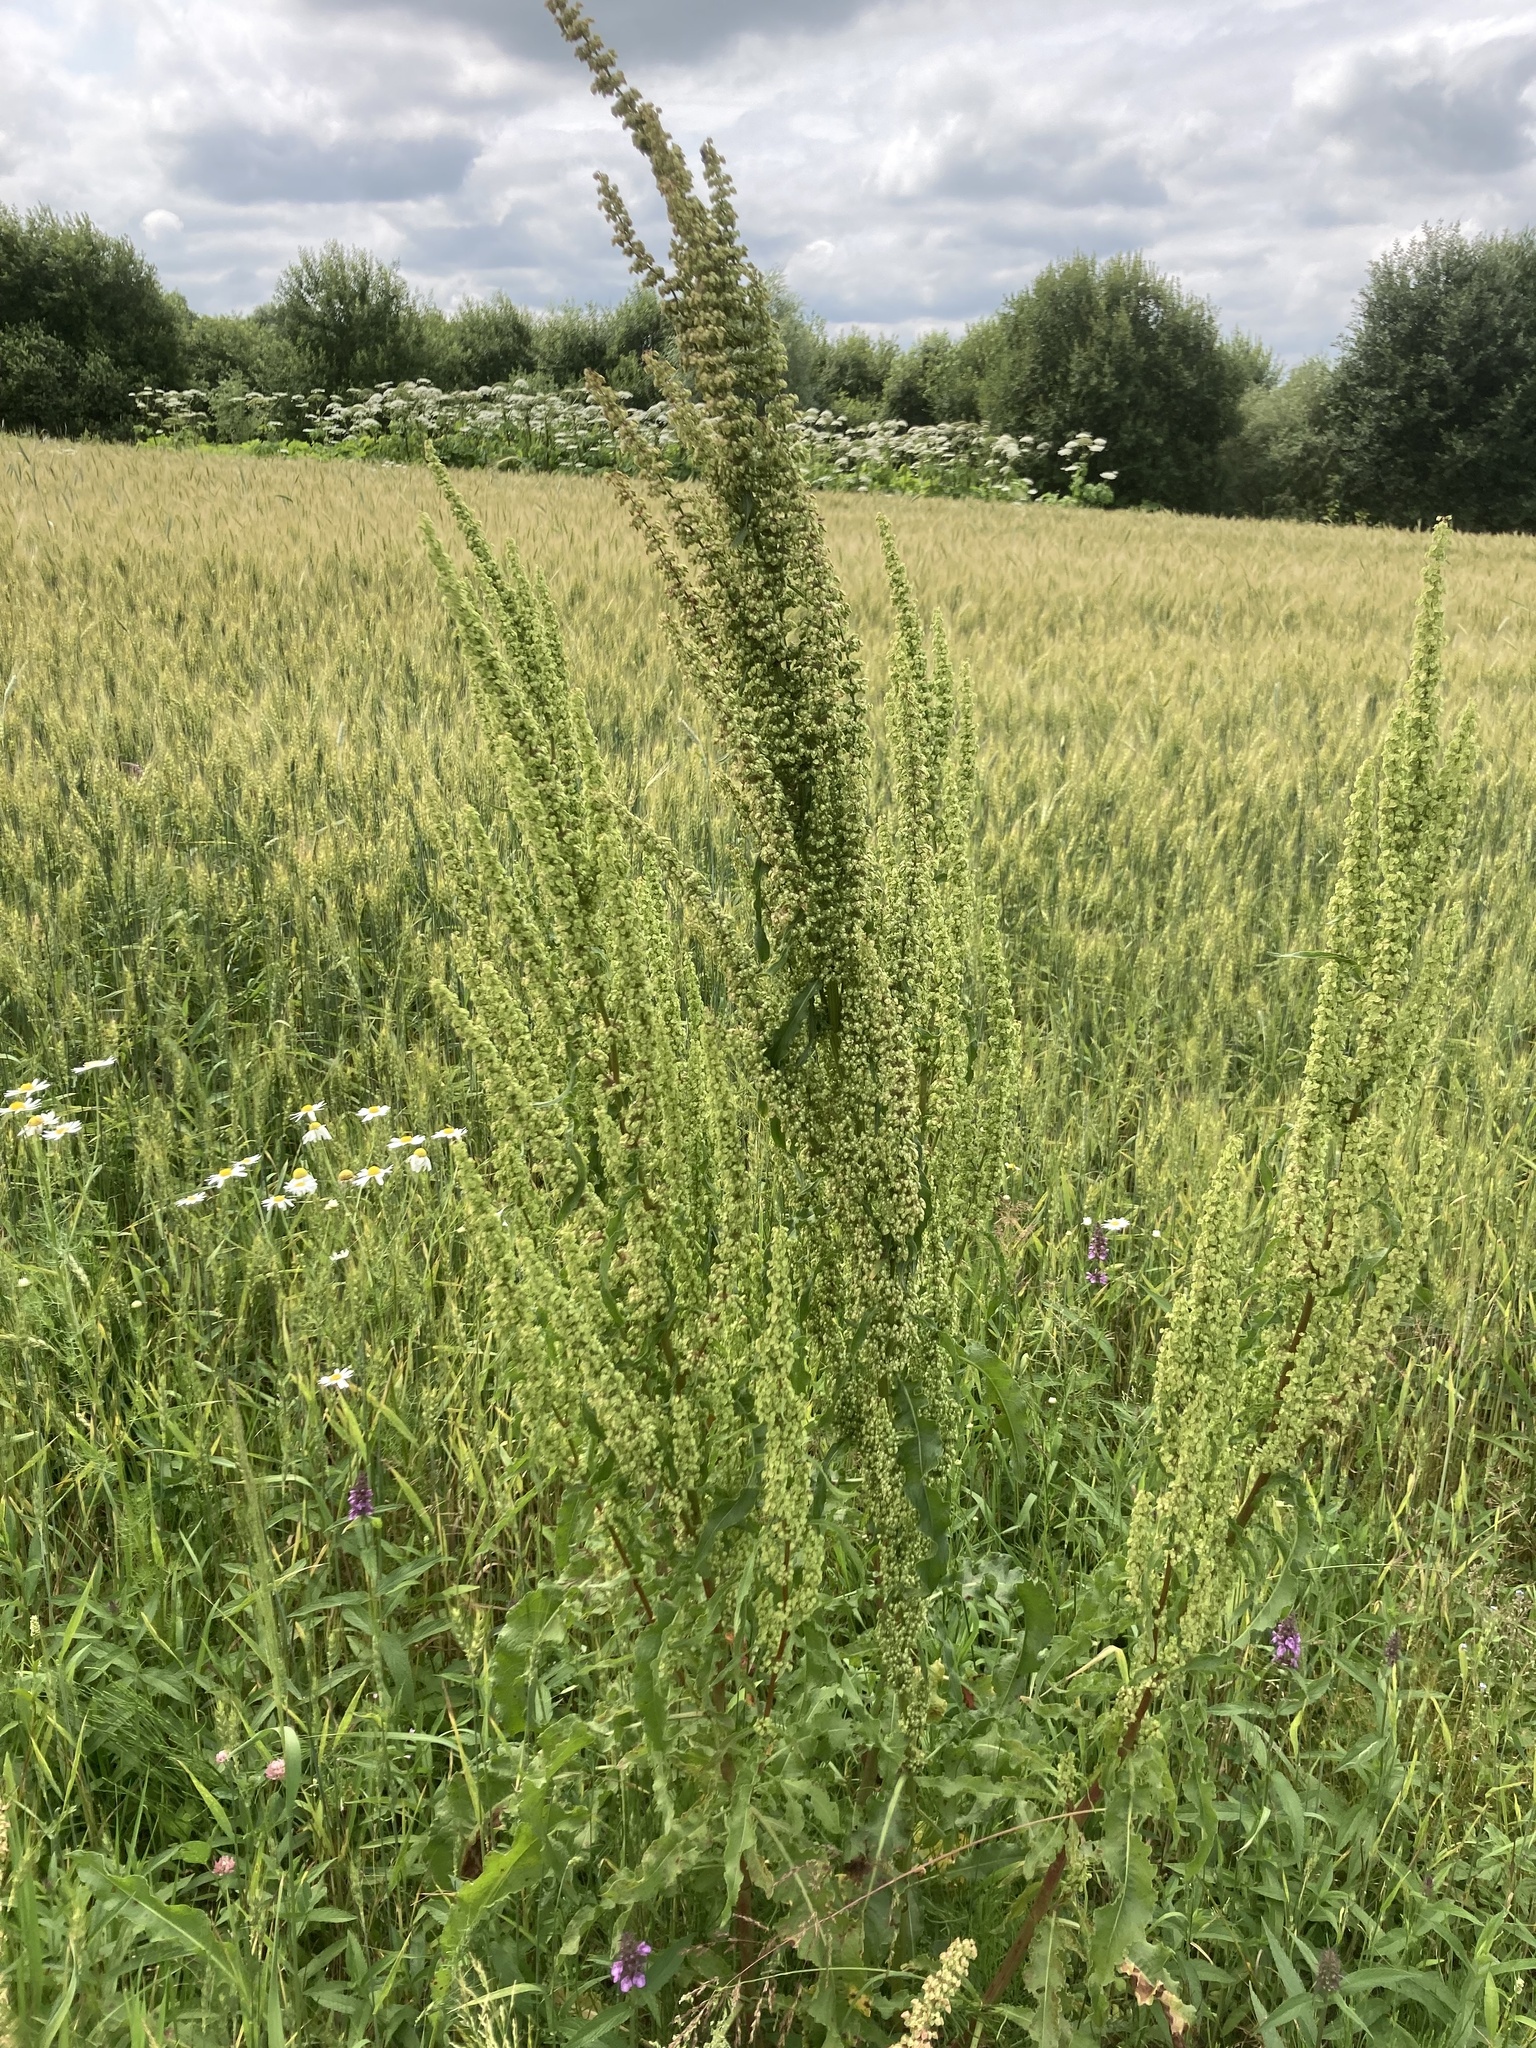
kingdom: Plantae
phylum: Tracheophyta
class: Magnoliopsida
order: Caryophyllales
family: Polygonaceae
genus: Rumex
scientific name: Rumex crispus
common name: Curled dock
